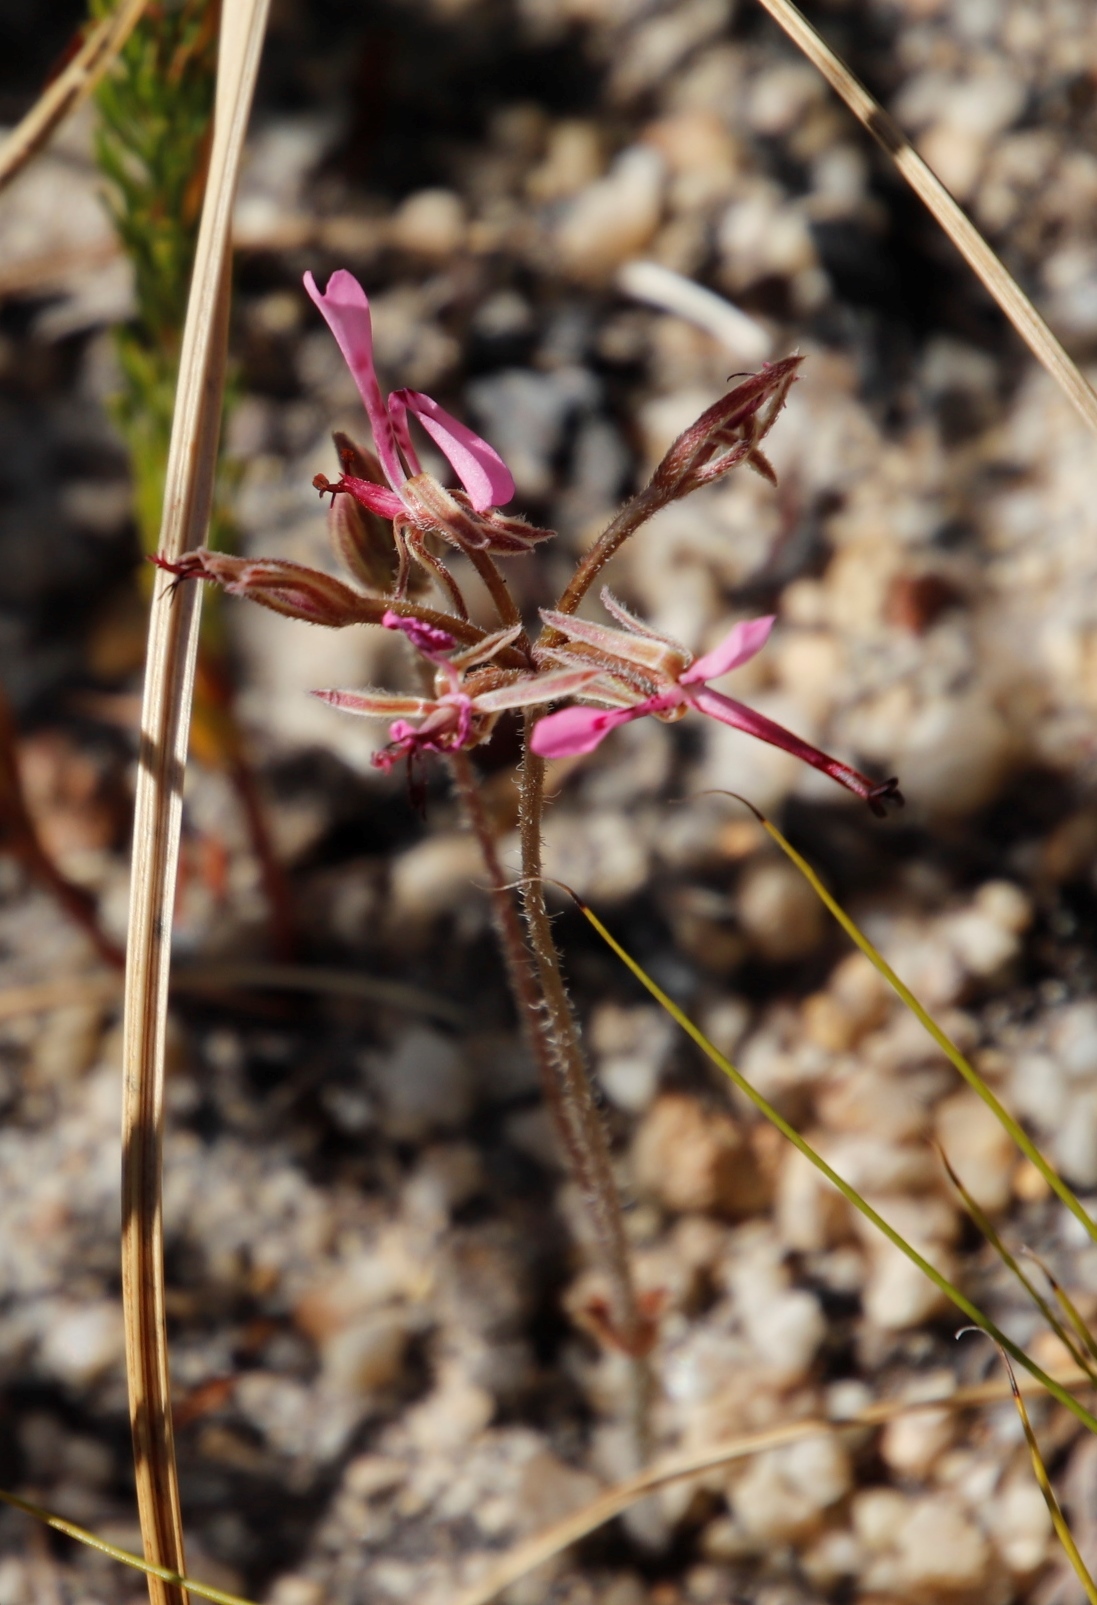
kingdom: Plantae
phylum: Tracheophyta
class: Magnoliopsida
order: Geraniales
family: Geraniaceae
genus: Pelargonium
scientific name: Pelargonium ternifolium
